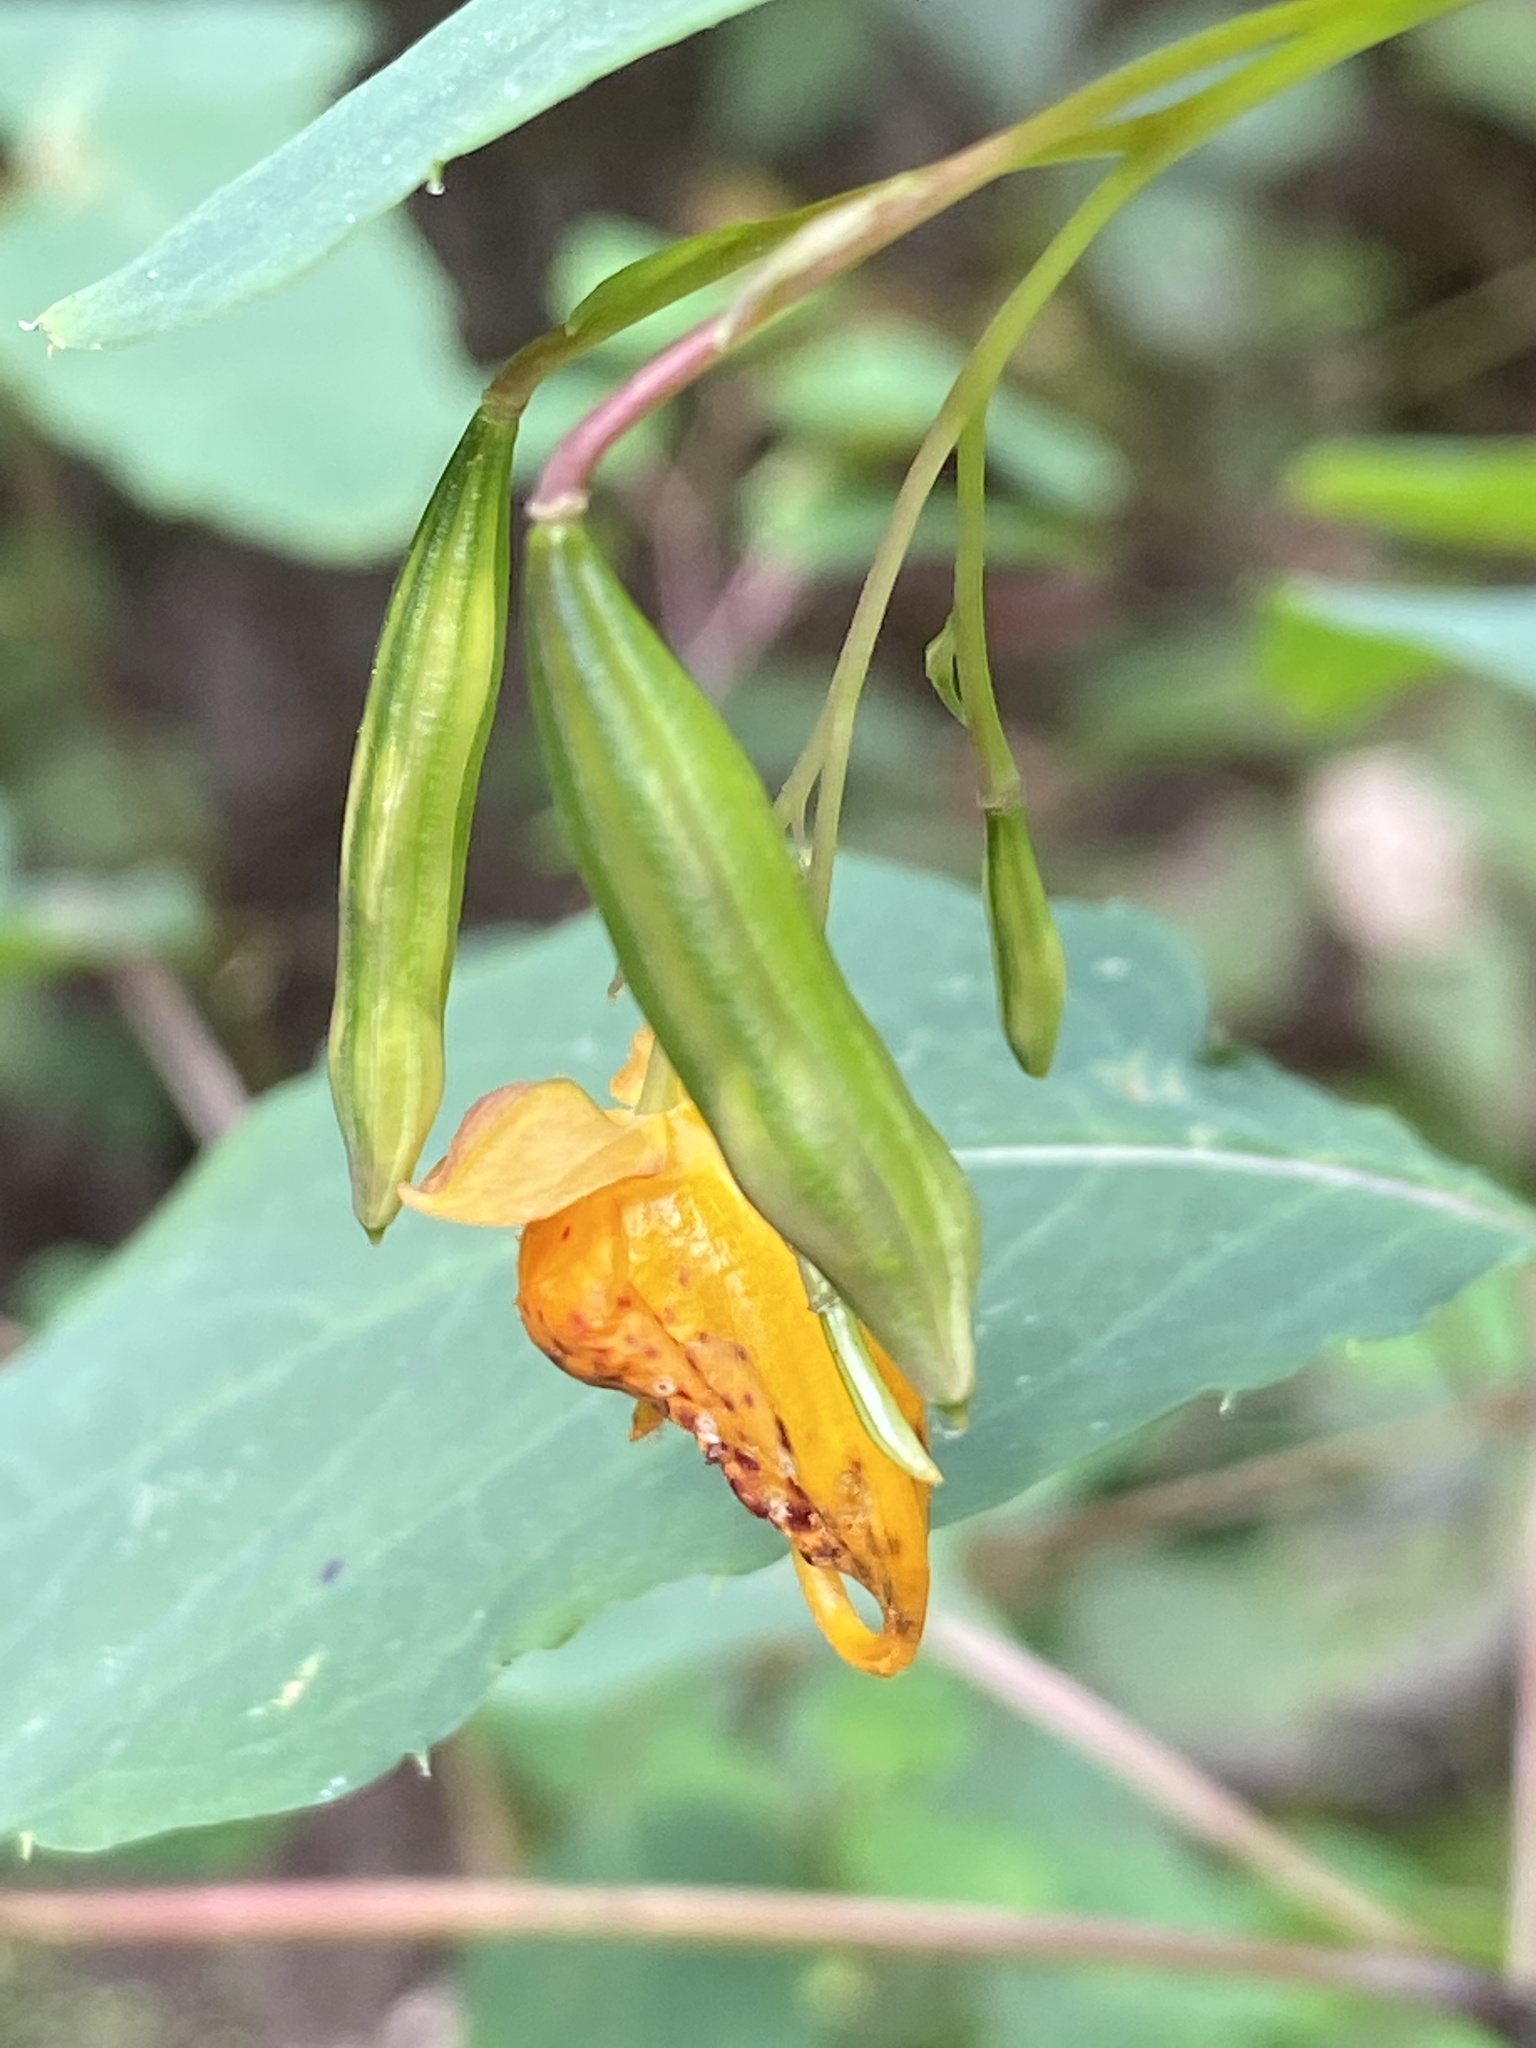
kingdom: Plantae
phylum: Tracheophyta
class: Magnoliopsida
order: Ericales
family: Balsaminaceae
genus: Impatiens
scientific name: Impatiens capensis
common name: Orange balsam
